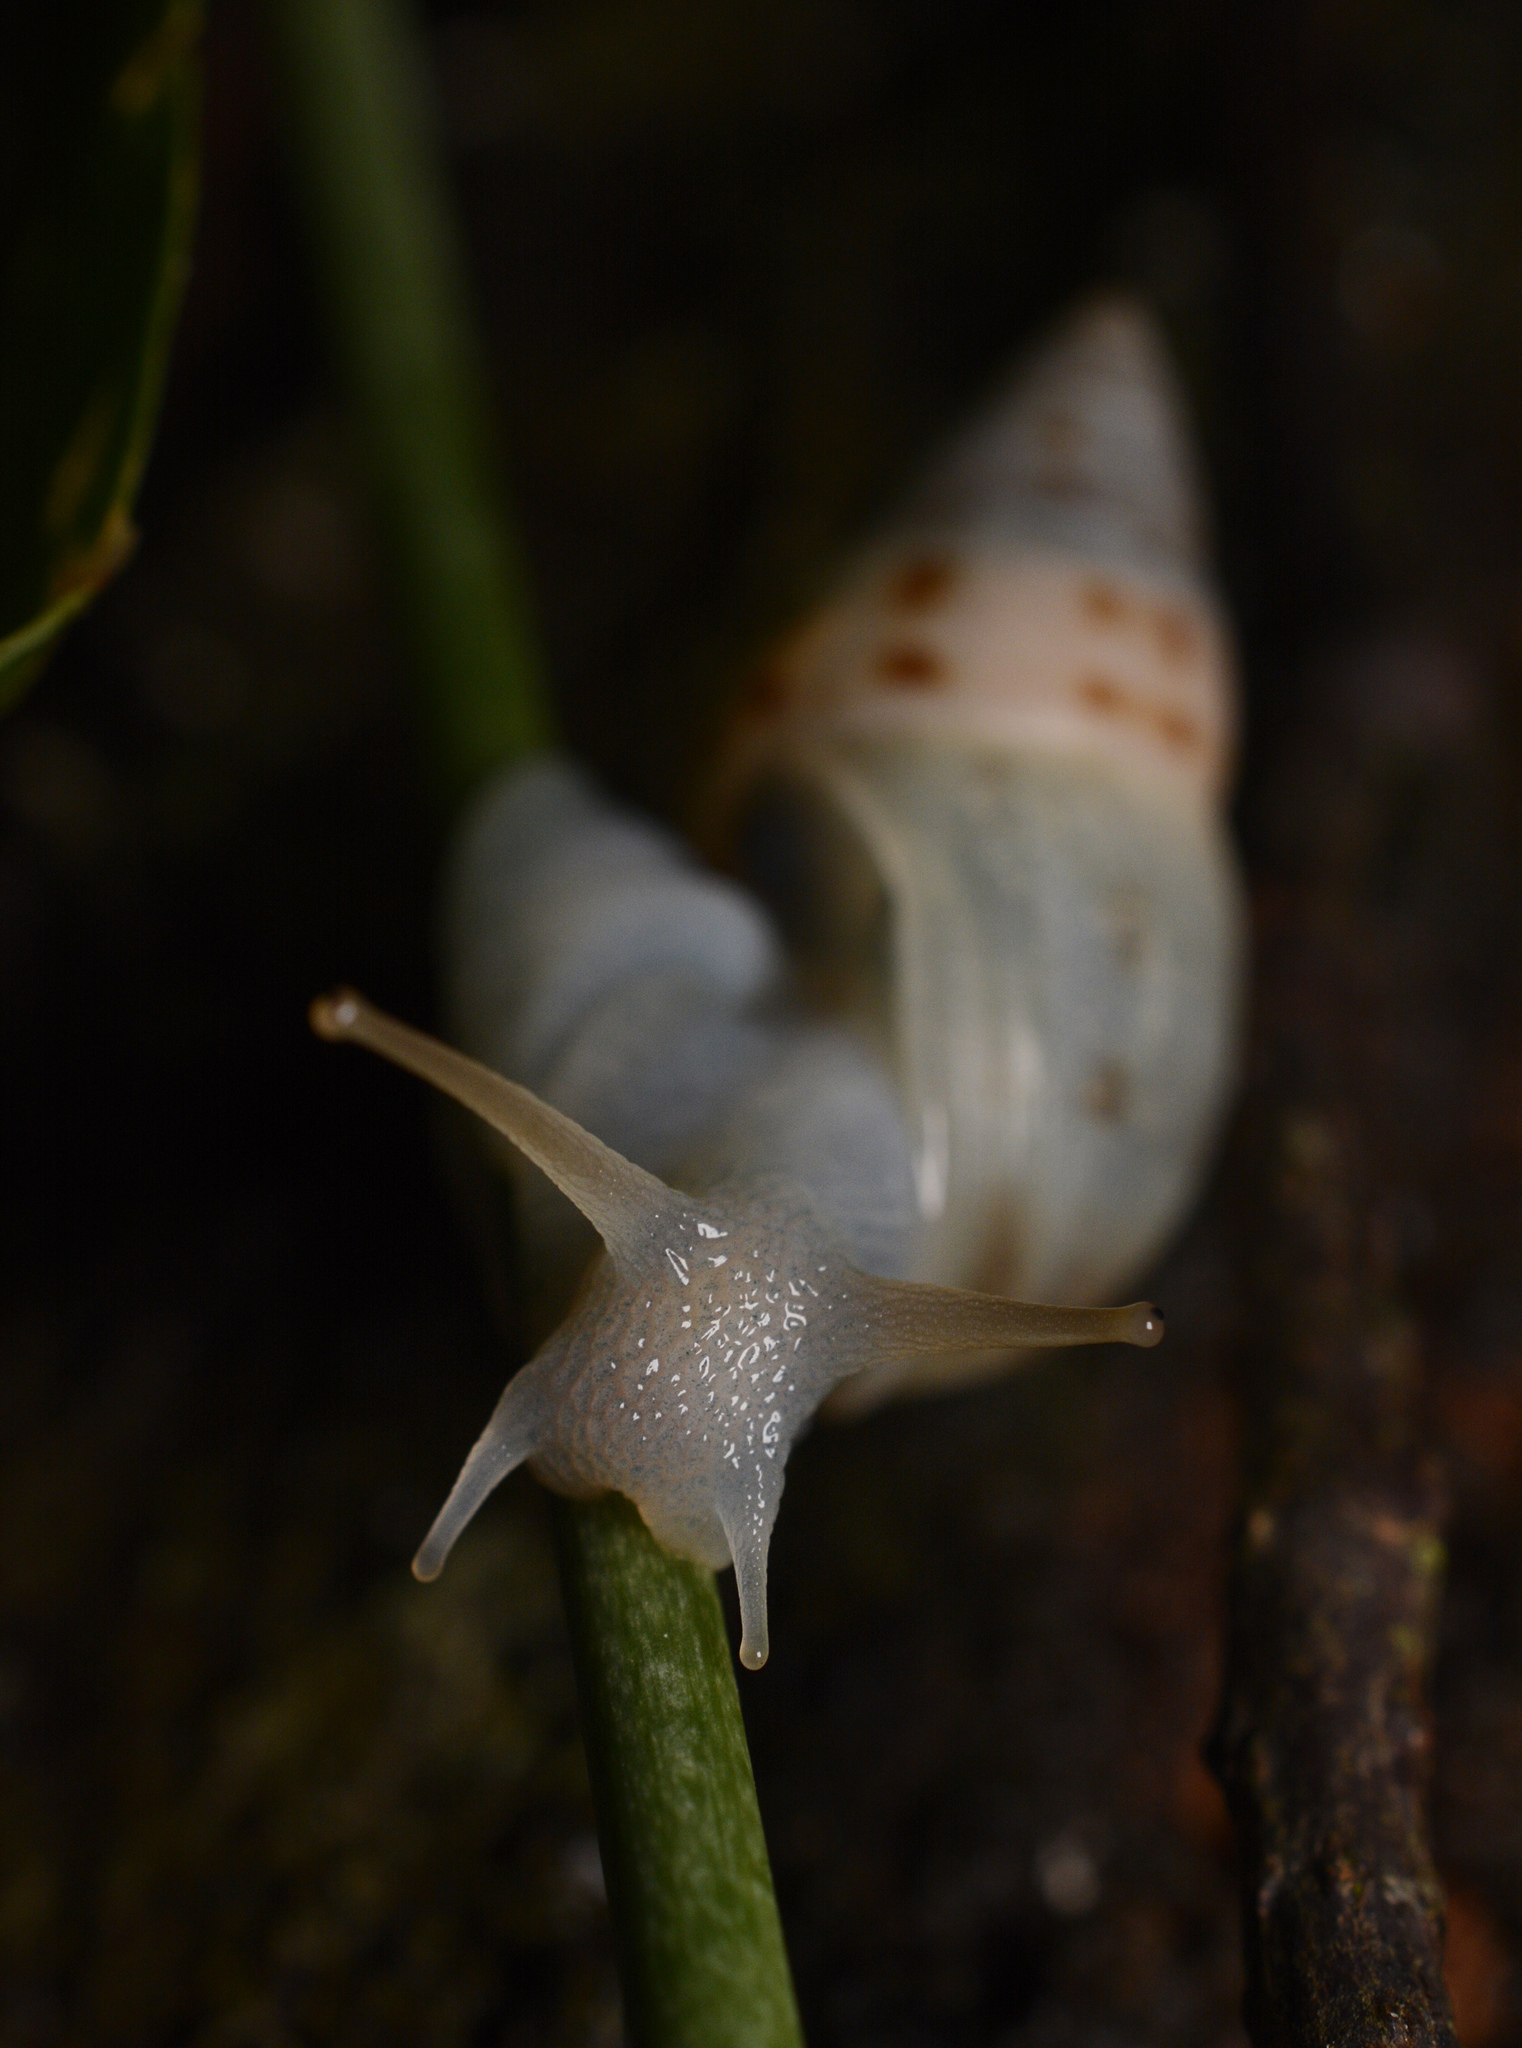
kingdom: Animalia
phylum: Mollusca
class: Gastropoda
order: Stylommatophora
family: Bulimulidae
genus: Drymaeus
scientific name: Drymaeus dormani
